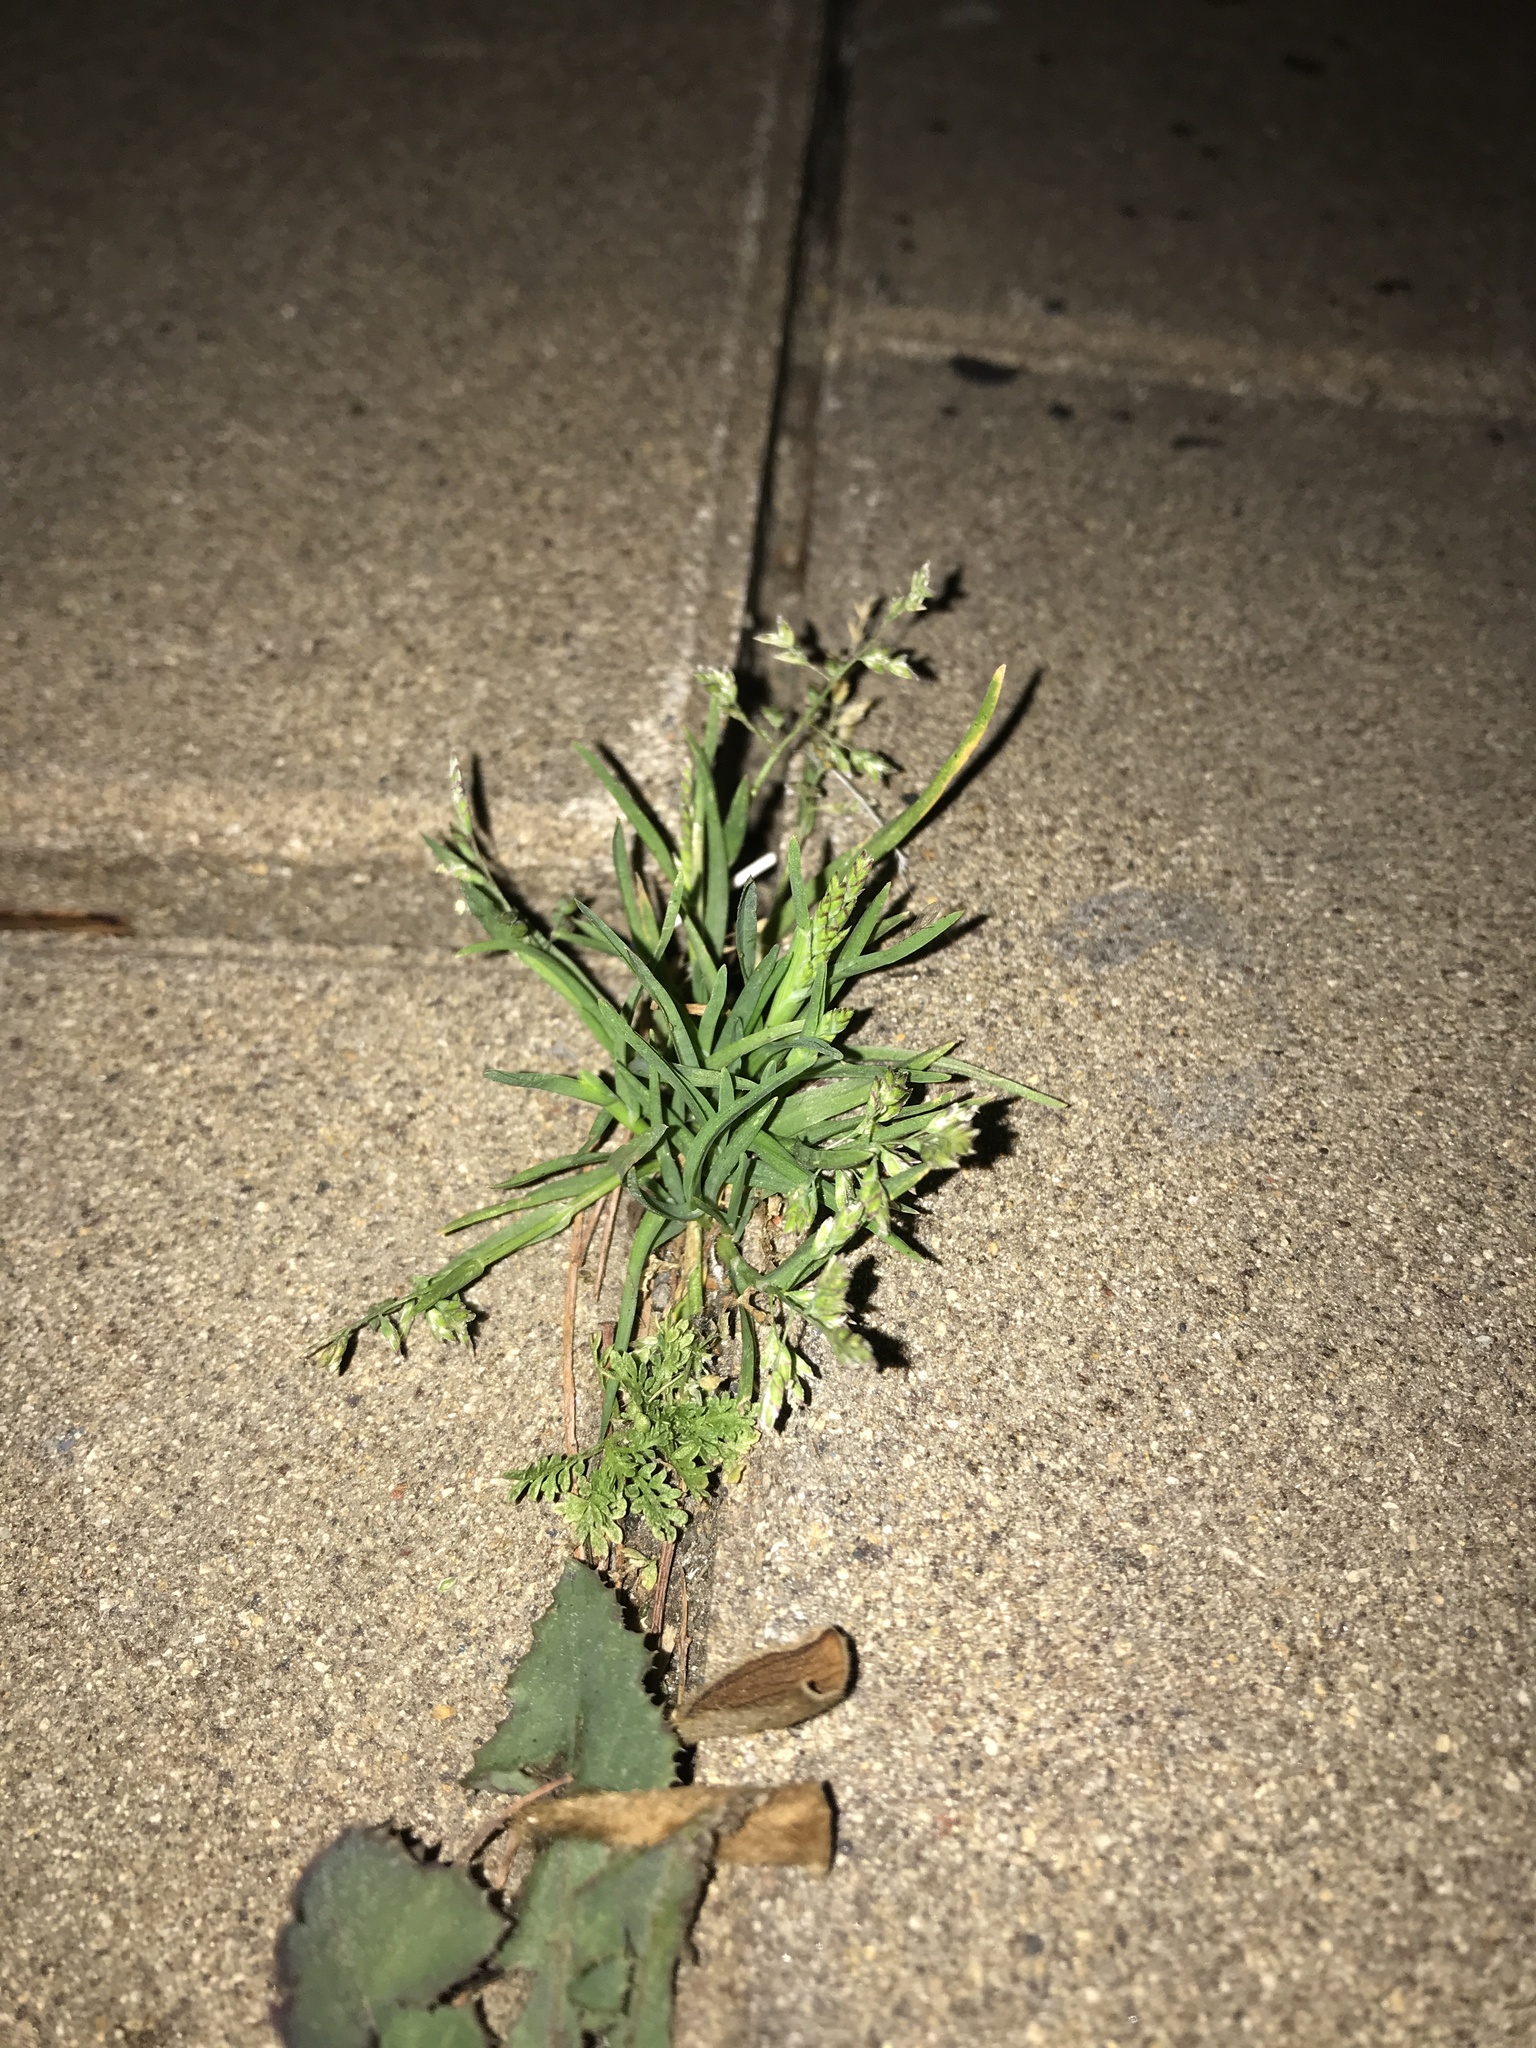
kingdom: Plantae
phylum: Tracheophyta
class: Liliopsida
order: Poales
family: Poaceae
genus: Poa
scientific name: Poa annua
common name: Annual bluegrass
